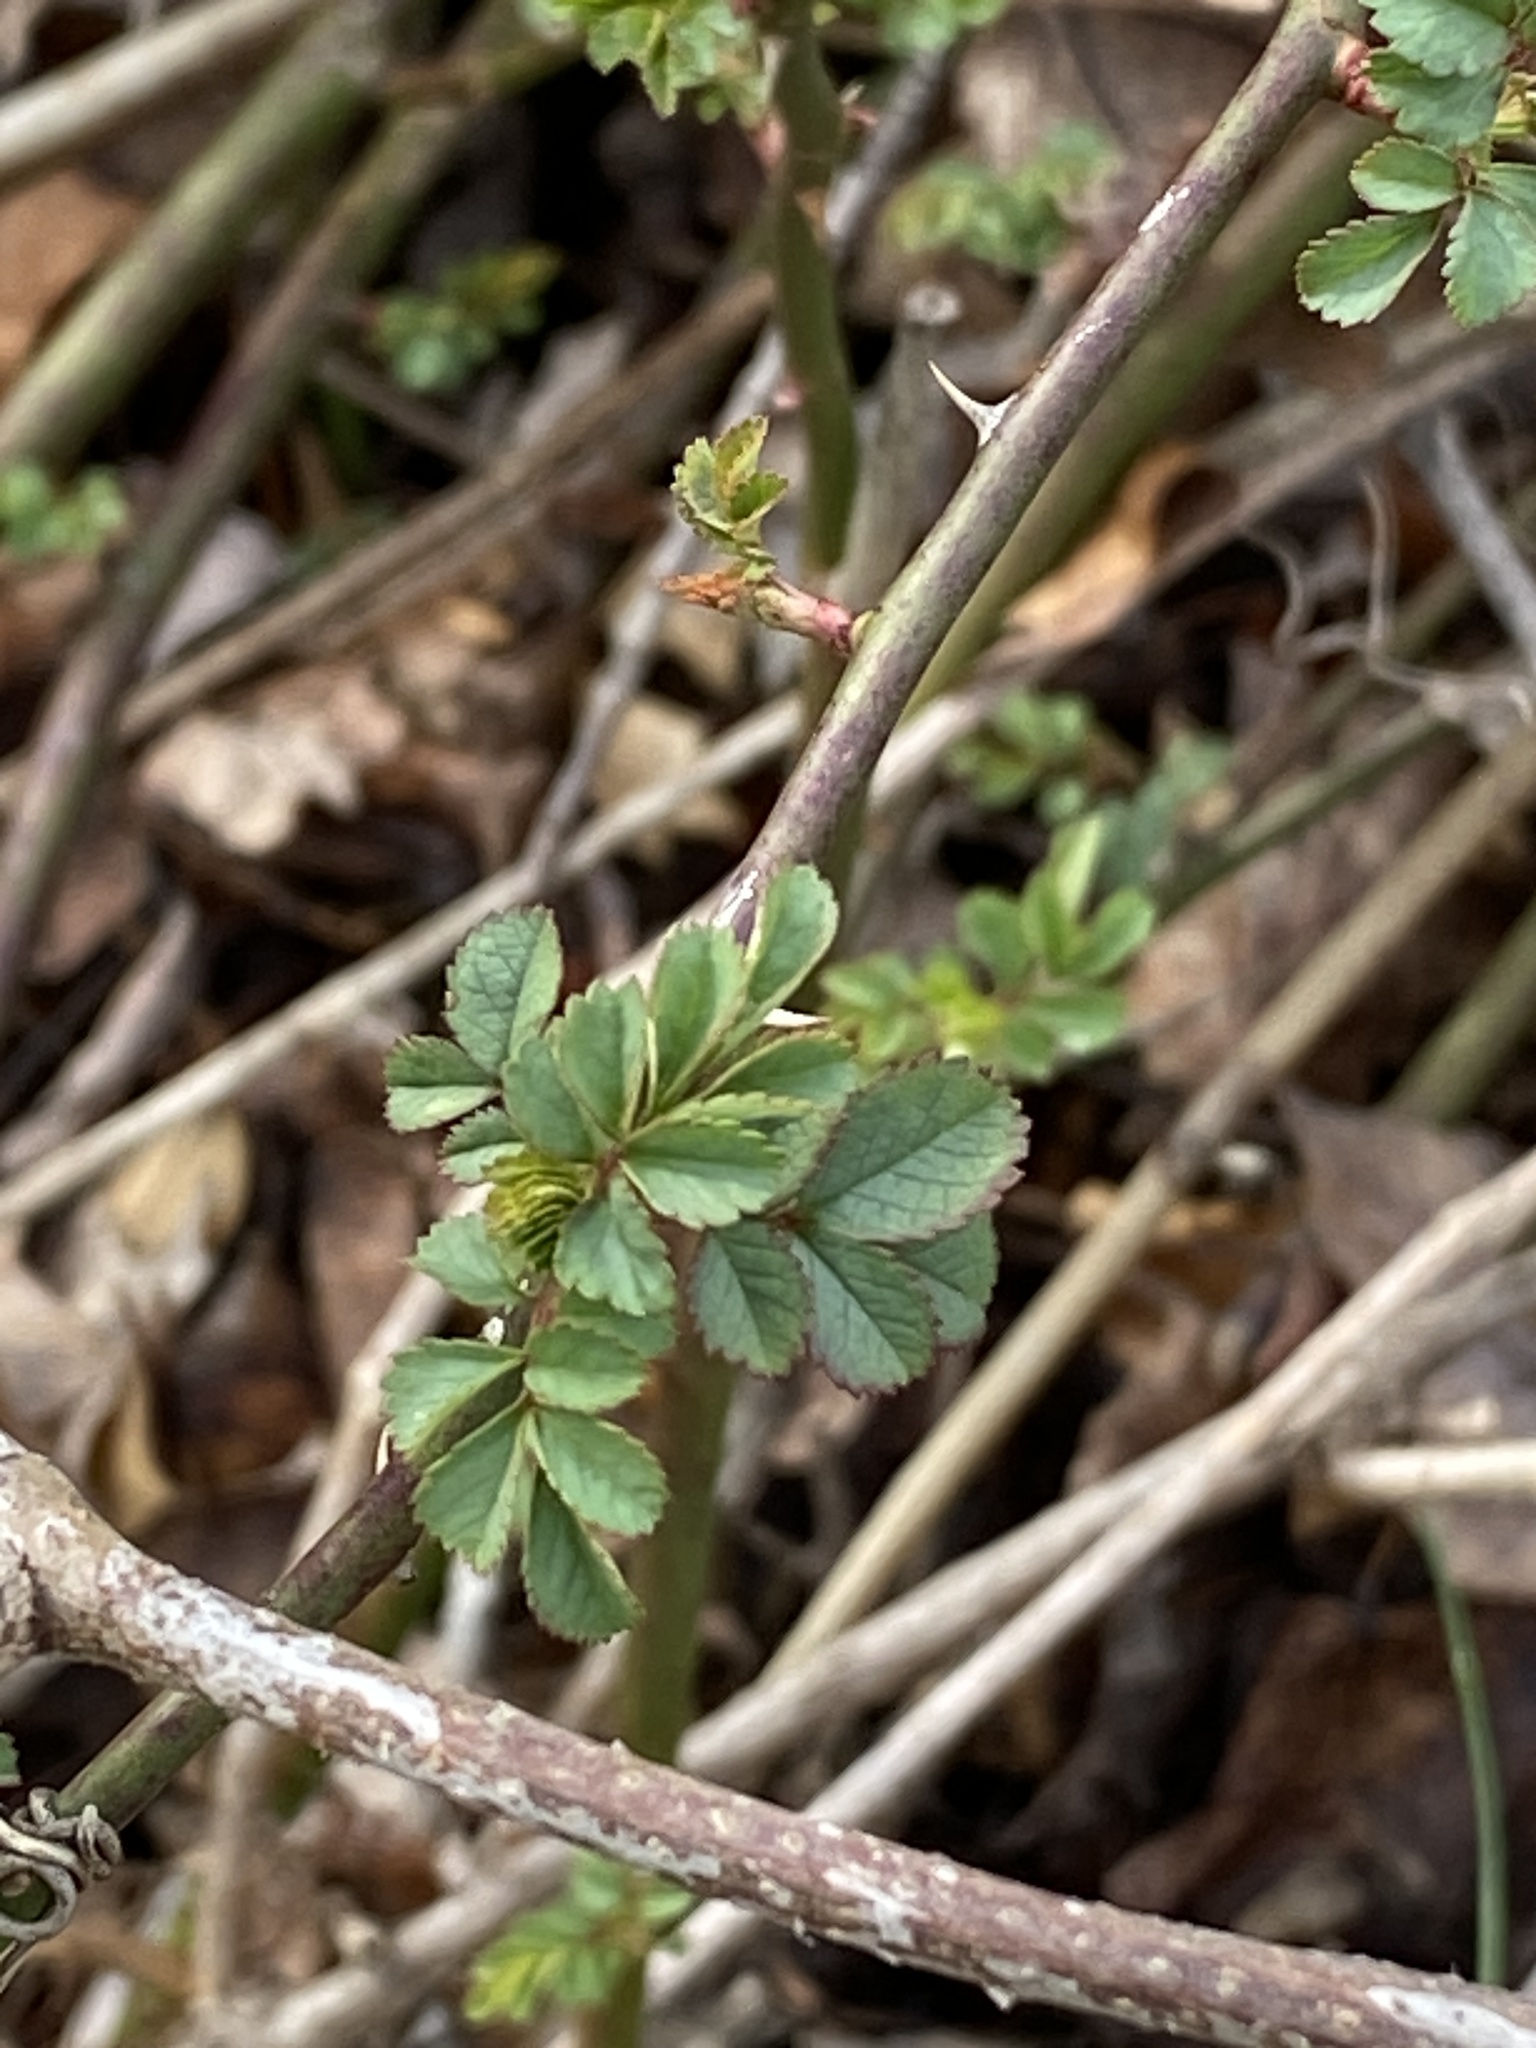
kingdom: Plantae
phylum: Tracheophyta
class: Magnoliopsida
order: Rosales
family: Rosaceae
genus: Rosa
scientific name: Rosa multiflora
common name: Multiflora rose
